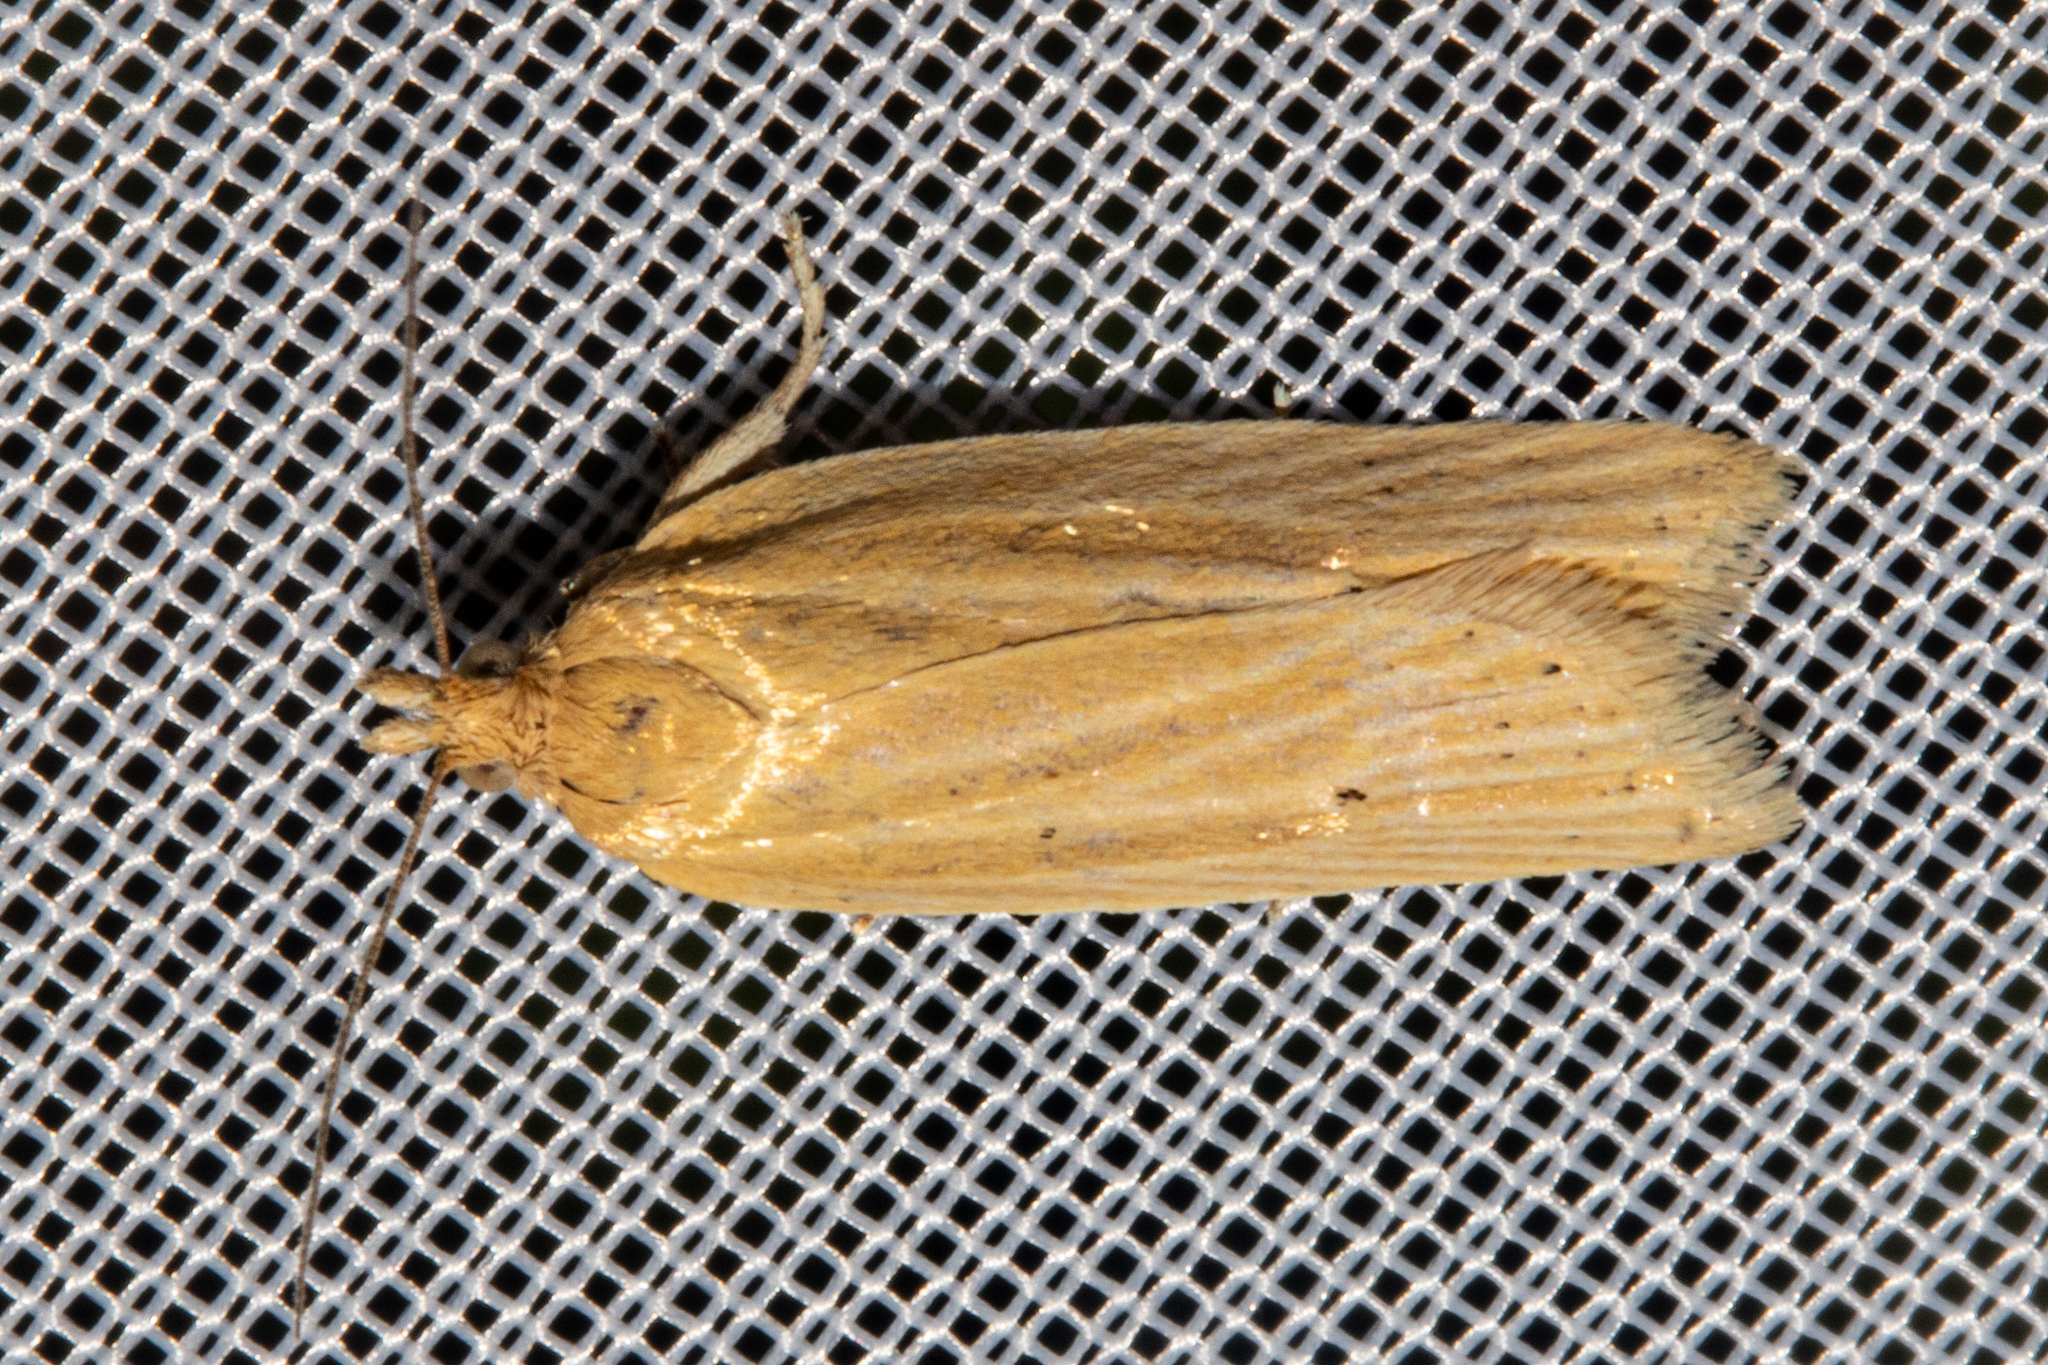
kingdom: Animalia
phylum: Arthropoda
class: Insecta
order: Lepidoptera
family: Tortricidae
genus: Clepsis
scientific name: Clepsis
